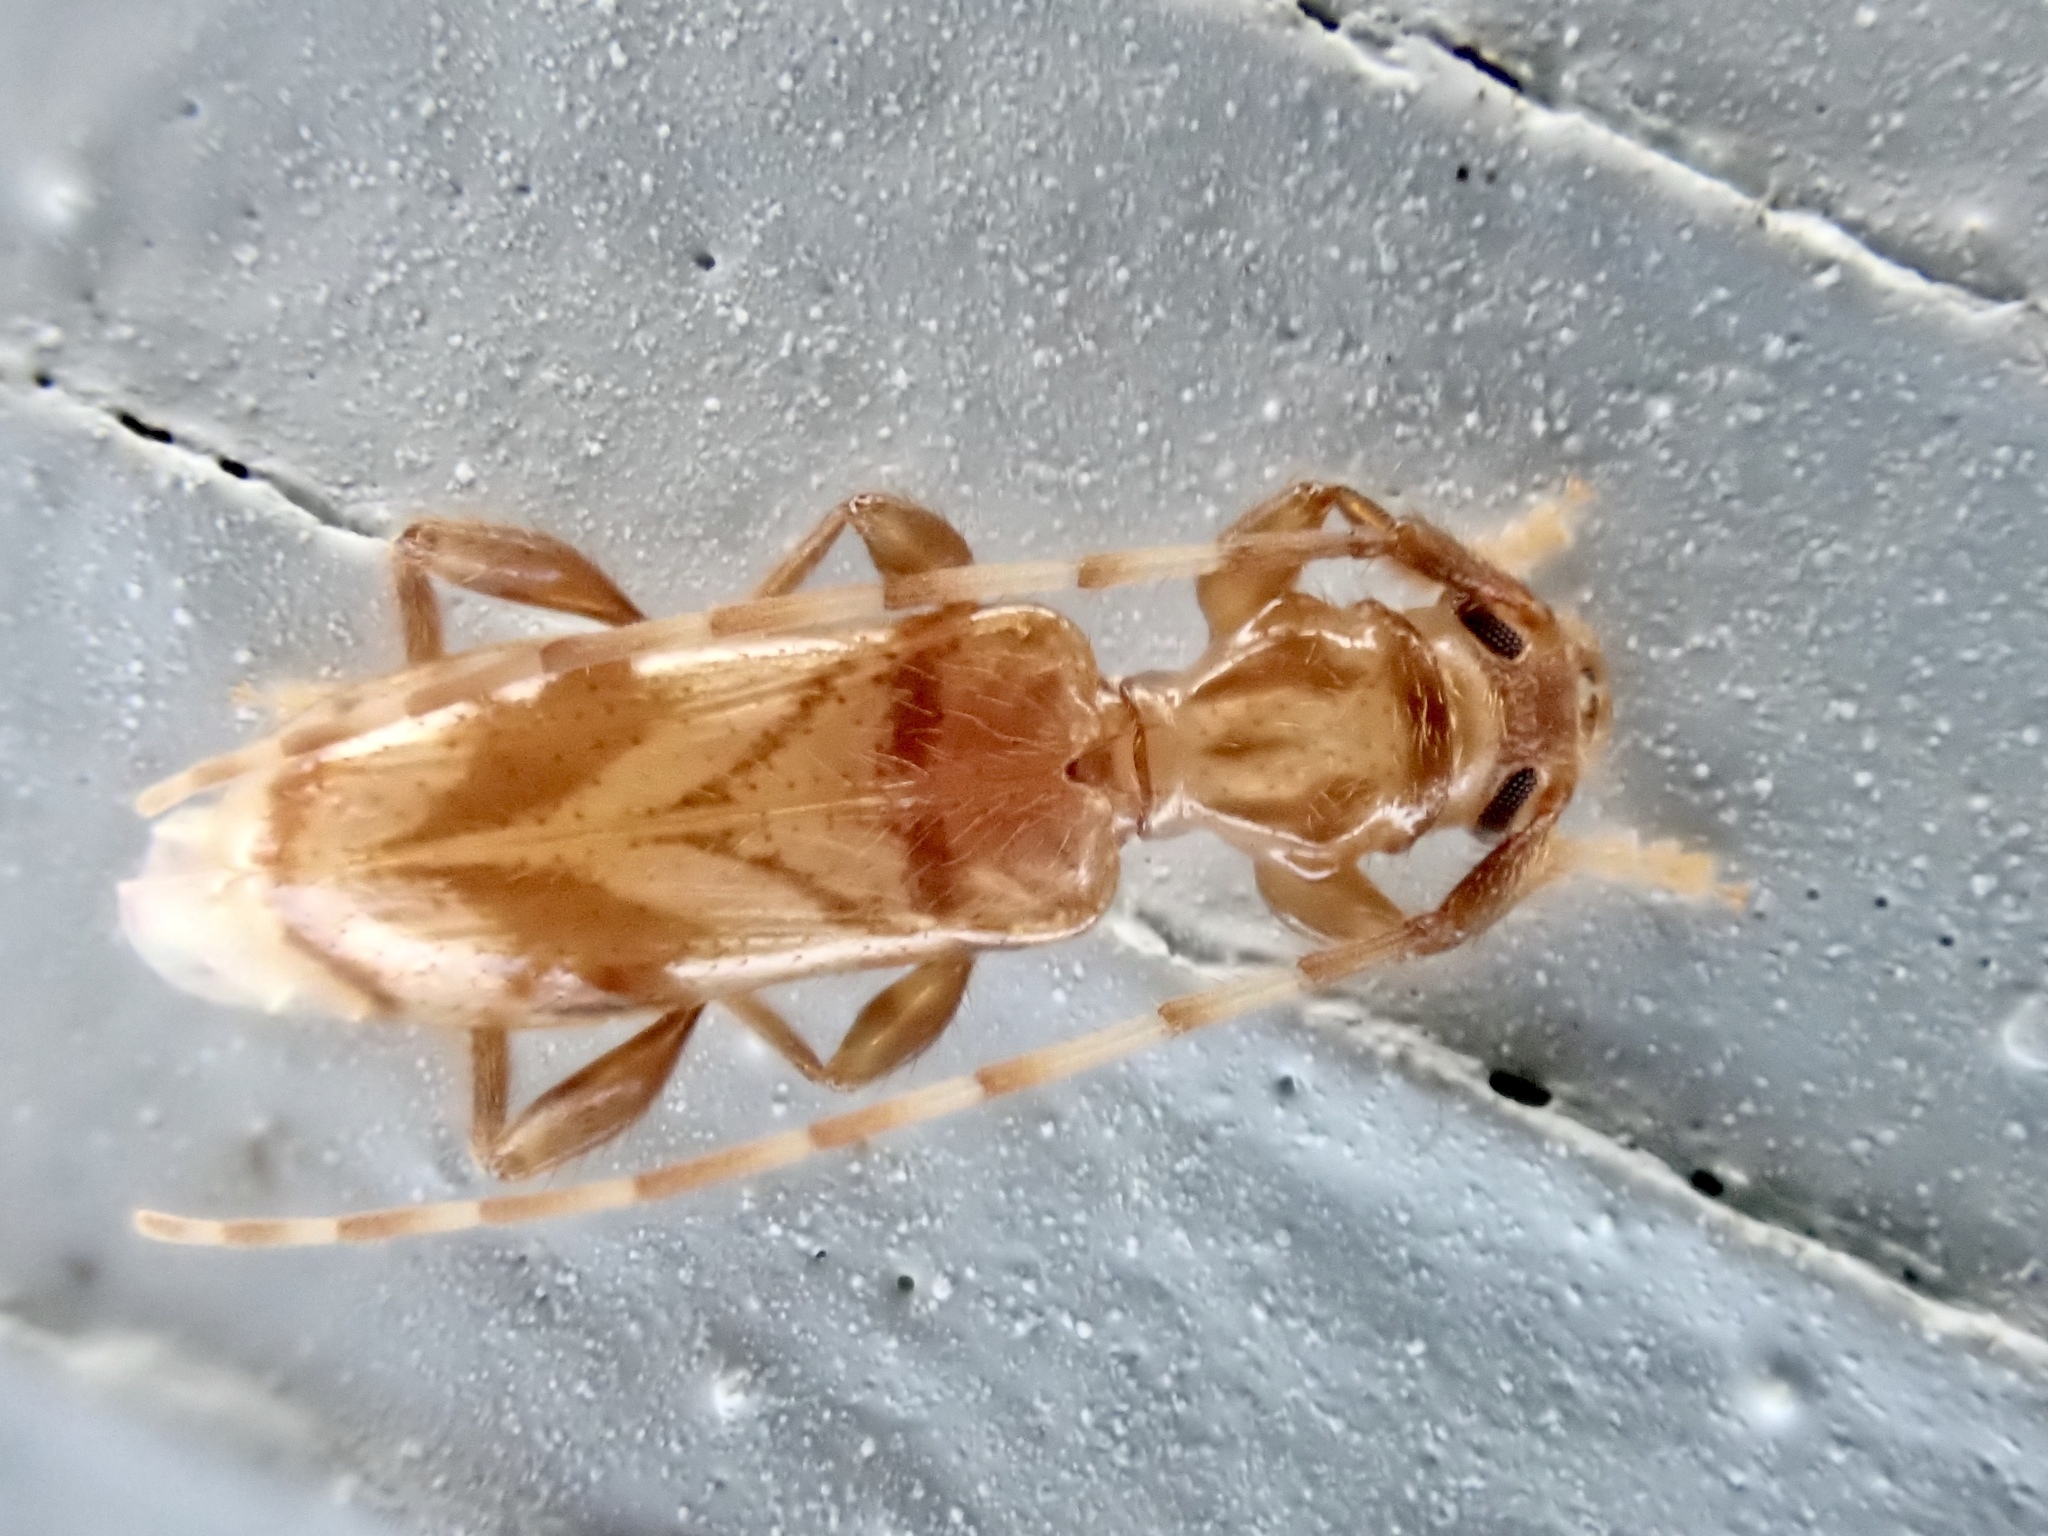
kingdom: Animalia
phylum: Arthropoda
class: Insecta
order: Coleoptera
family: Cerambycidae
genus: Obrium
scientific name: Obrium maculatum
